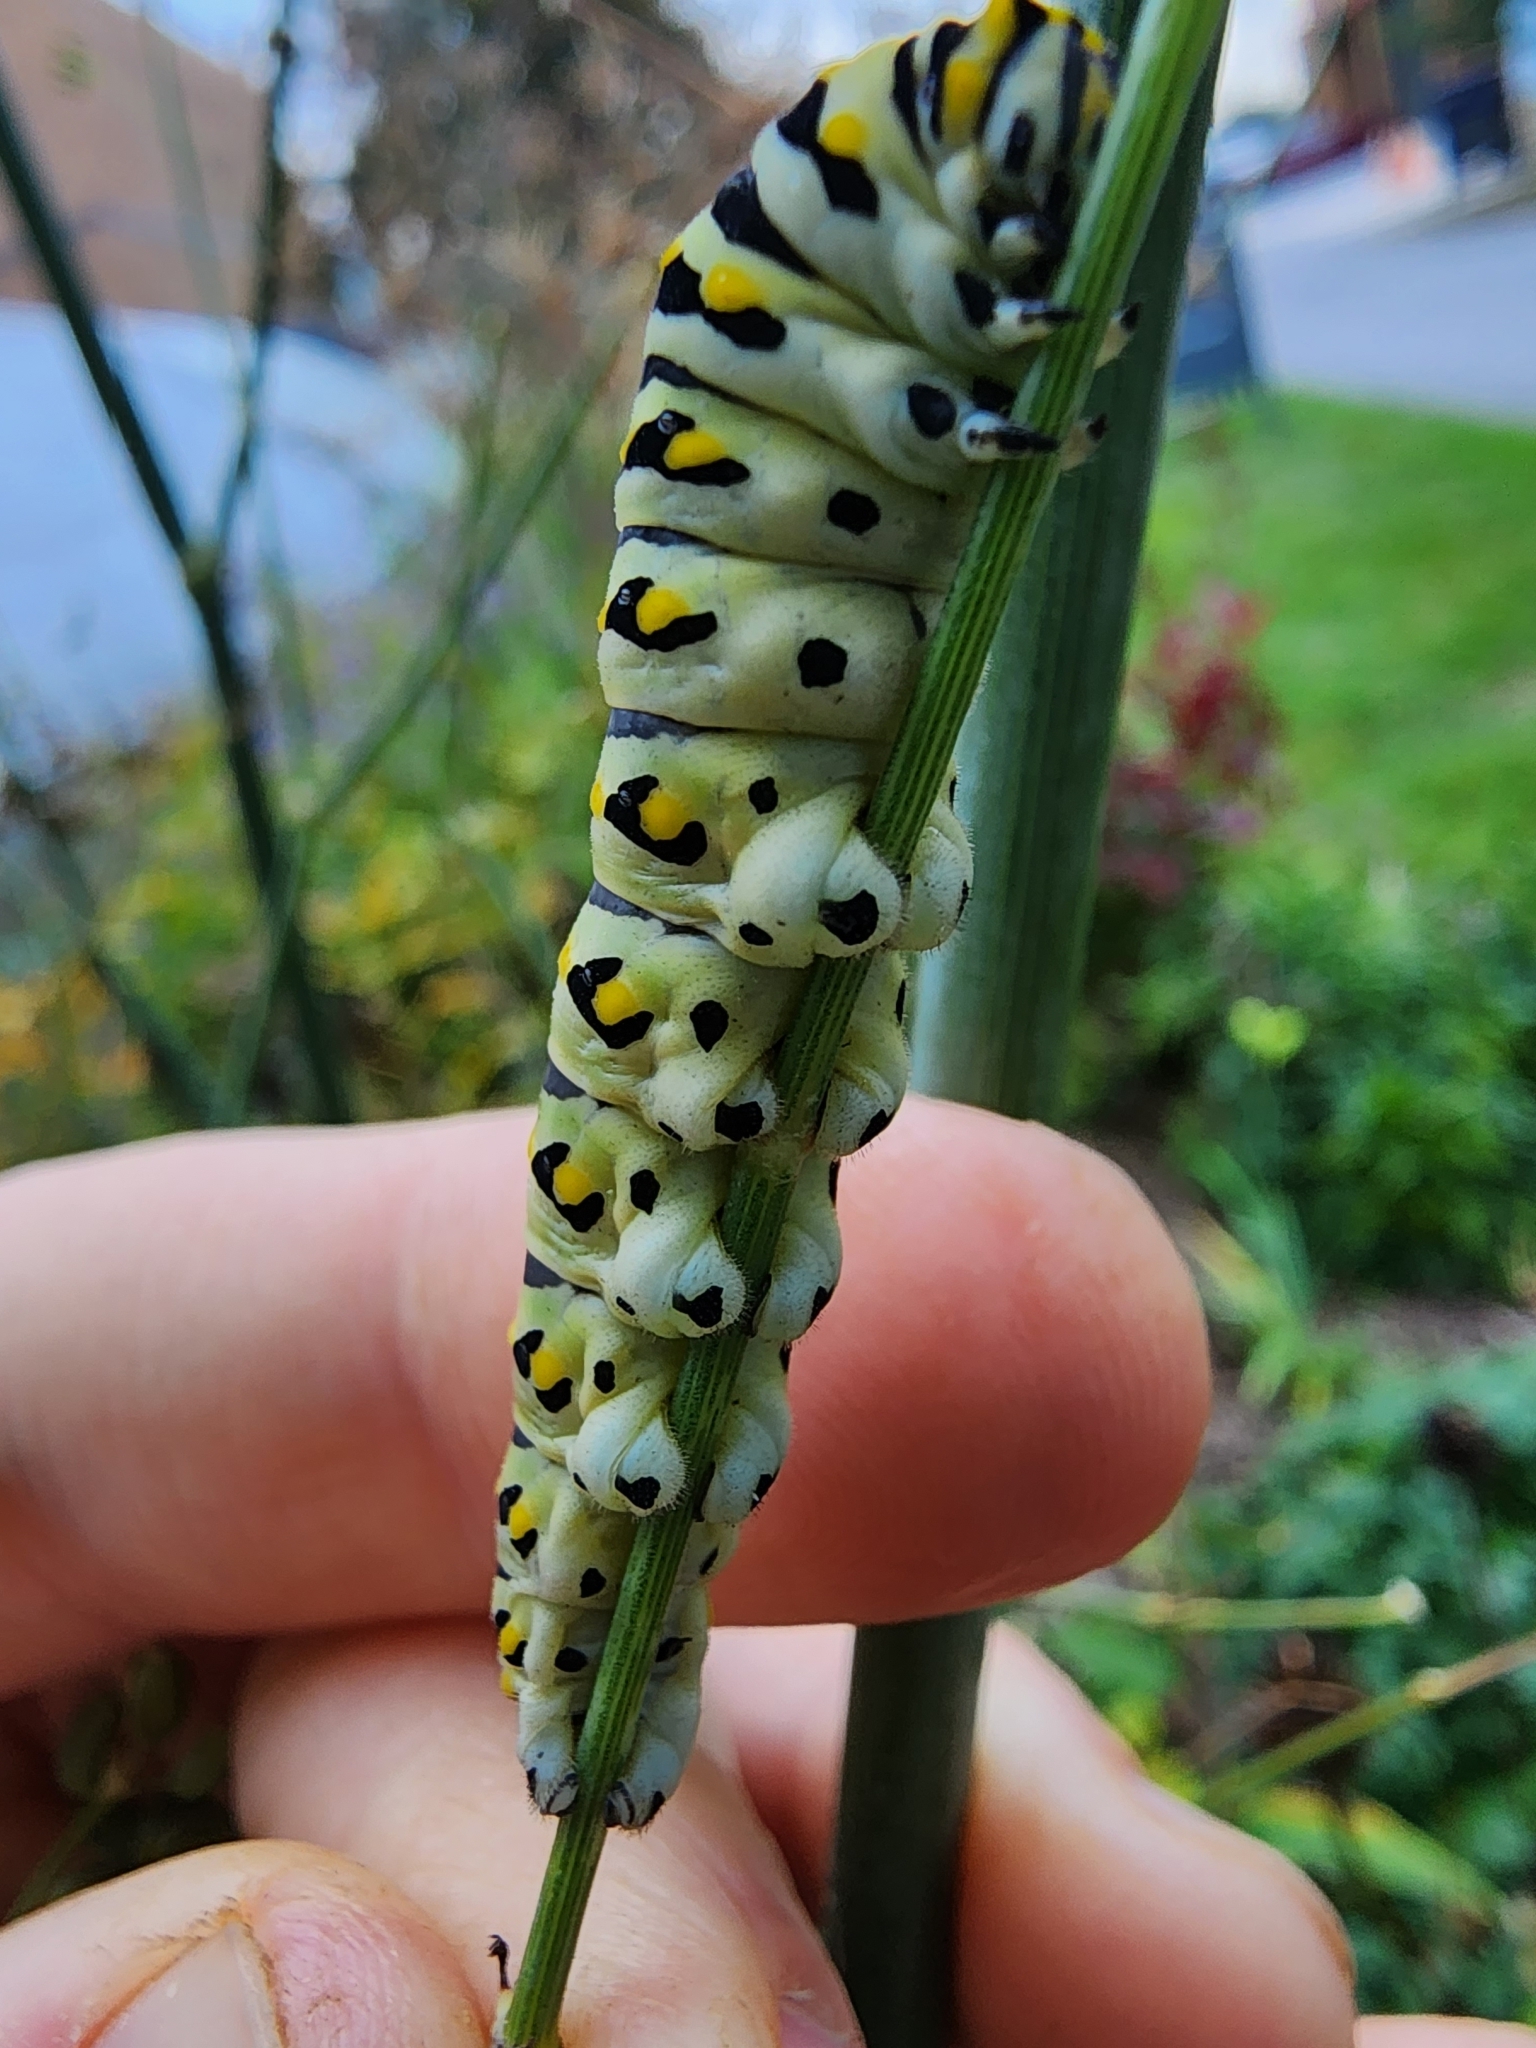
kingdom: Animalia
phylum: Arthropoda
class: Insecta
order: Lepidoptera
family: Papilionidae
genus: Papilio
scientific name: Papilio polyxenes
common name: Black swallowtail
